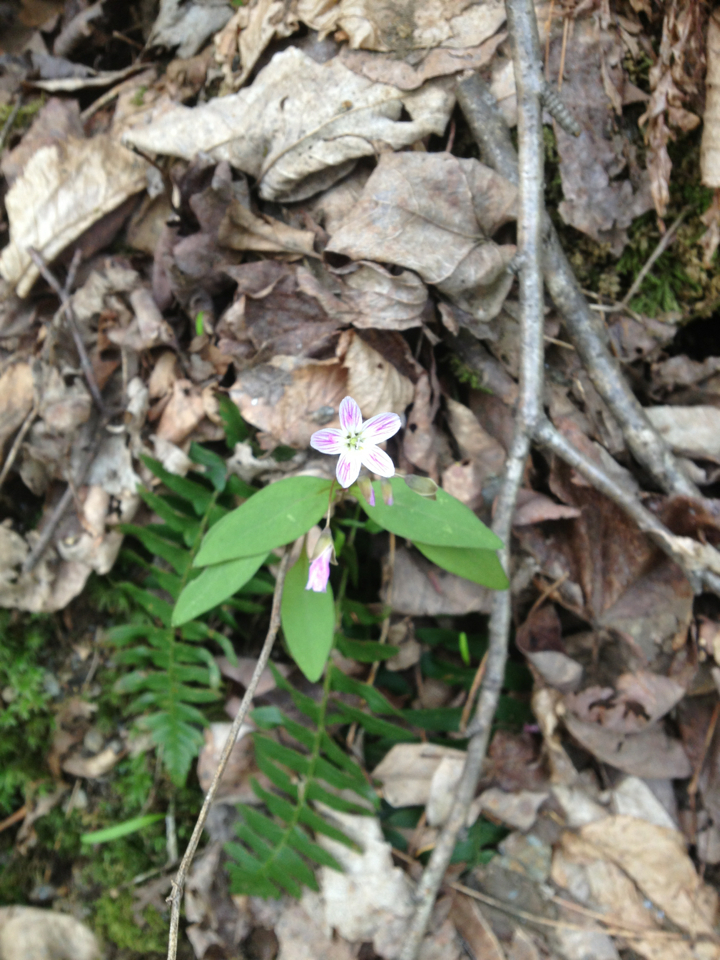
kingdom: Plantae
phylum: Tracheophyta
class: Magnoliopsida
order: Caryophyllales
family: Montiaceae
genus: Claytonia
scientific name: Claytonia caroliniana
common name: Carolina spring beauty
